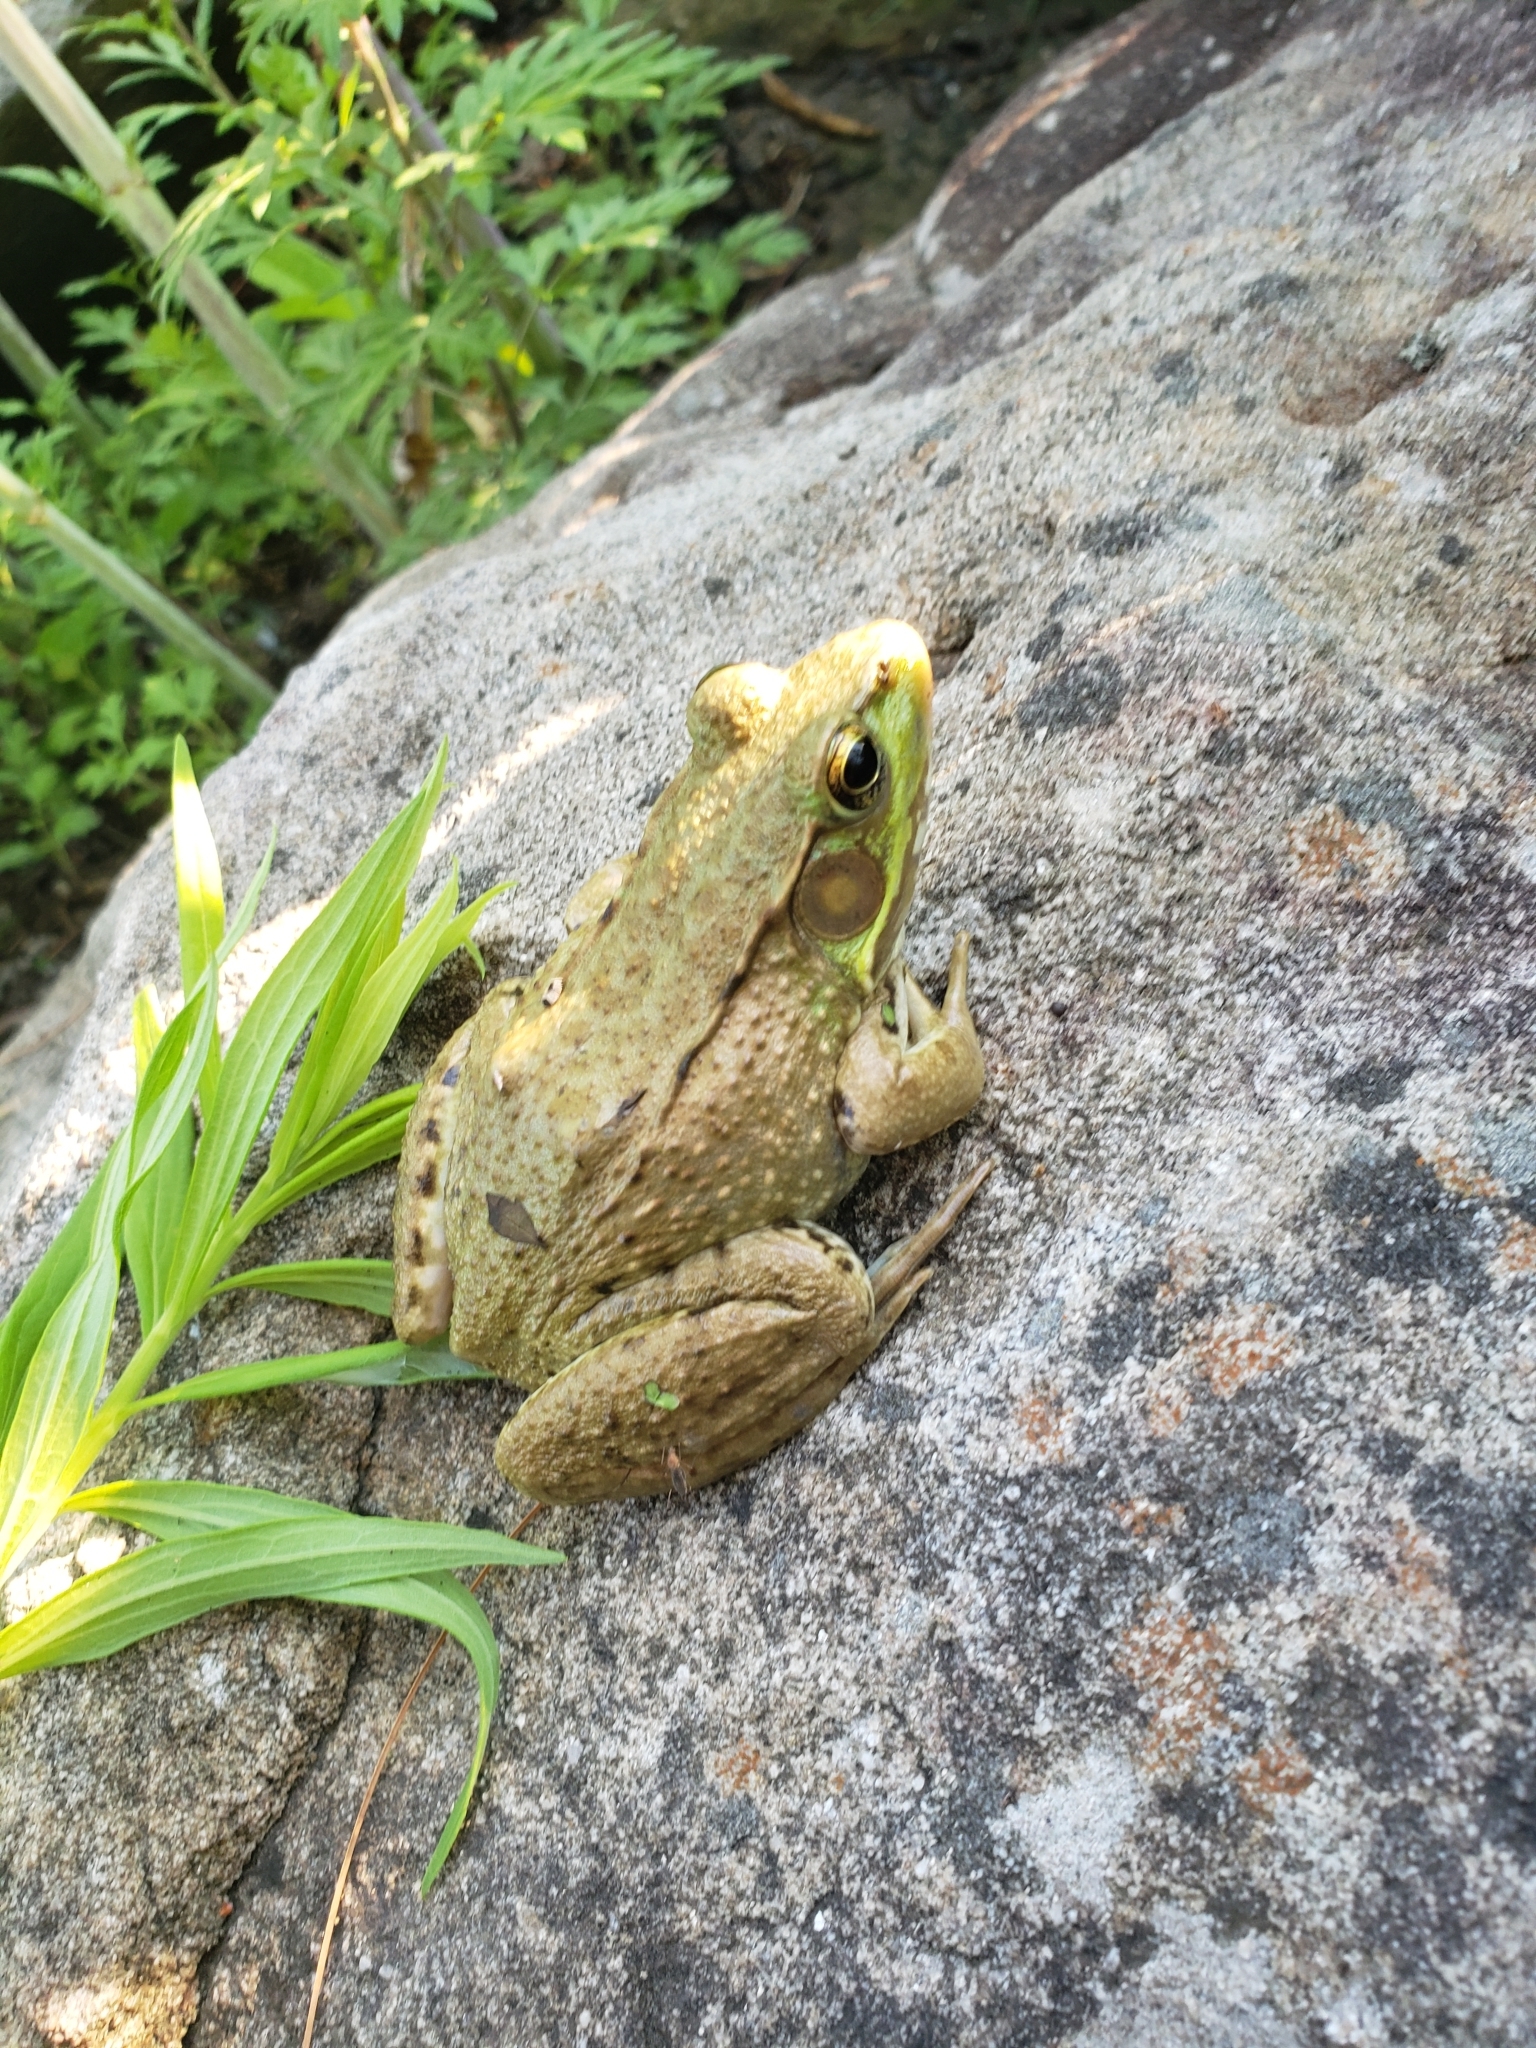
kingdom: Animalia
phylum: Chordata
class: Amphibia
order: Anura
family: Ranidae
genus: Lithobates
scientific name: Lithobates clamitans
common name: Green frog
